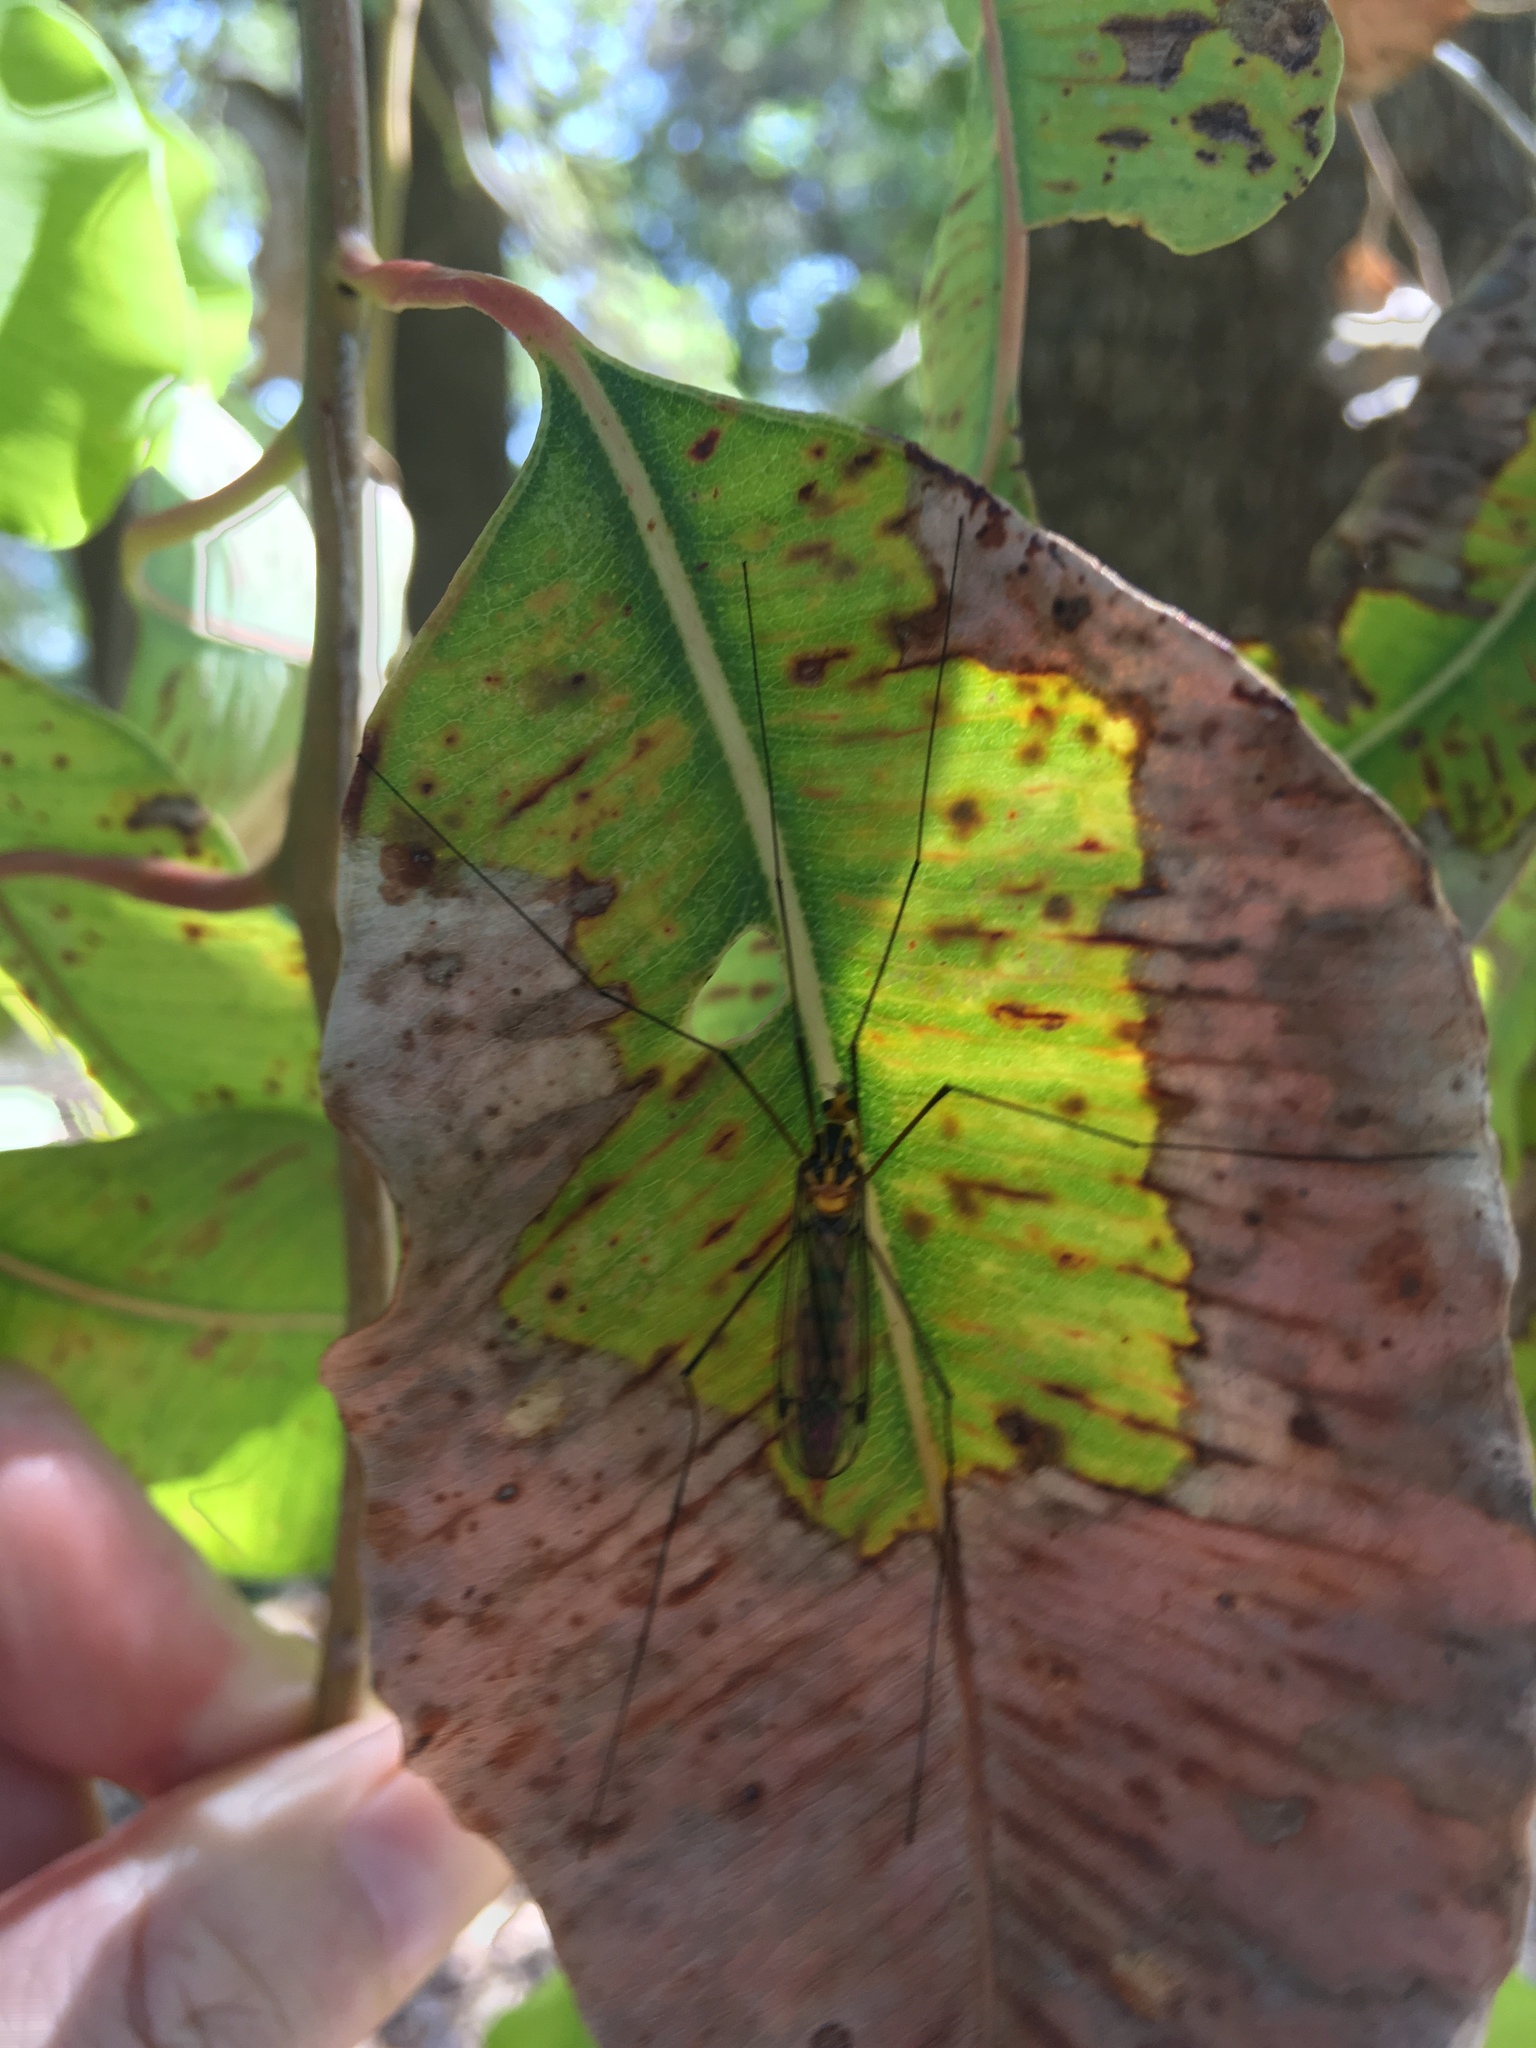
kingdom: Animalia
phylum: Arthropoda
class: Insecta
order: Diptera
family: Tipulidae
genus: Nephrotoma
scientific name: Nephrotoma australasiae
